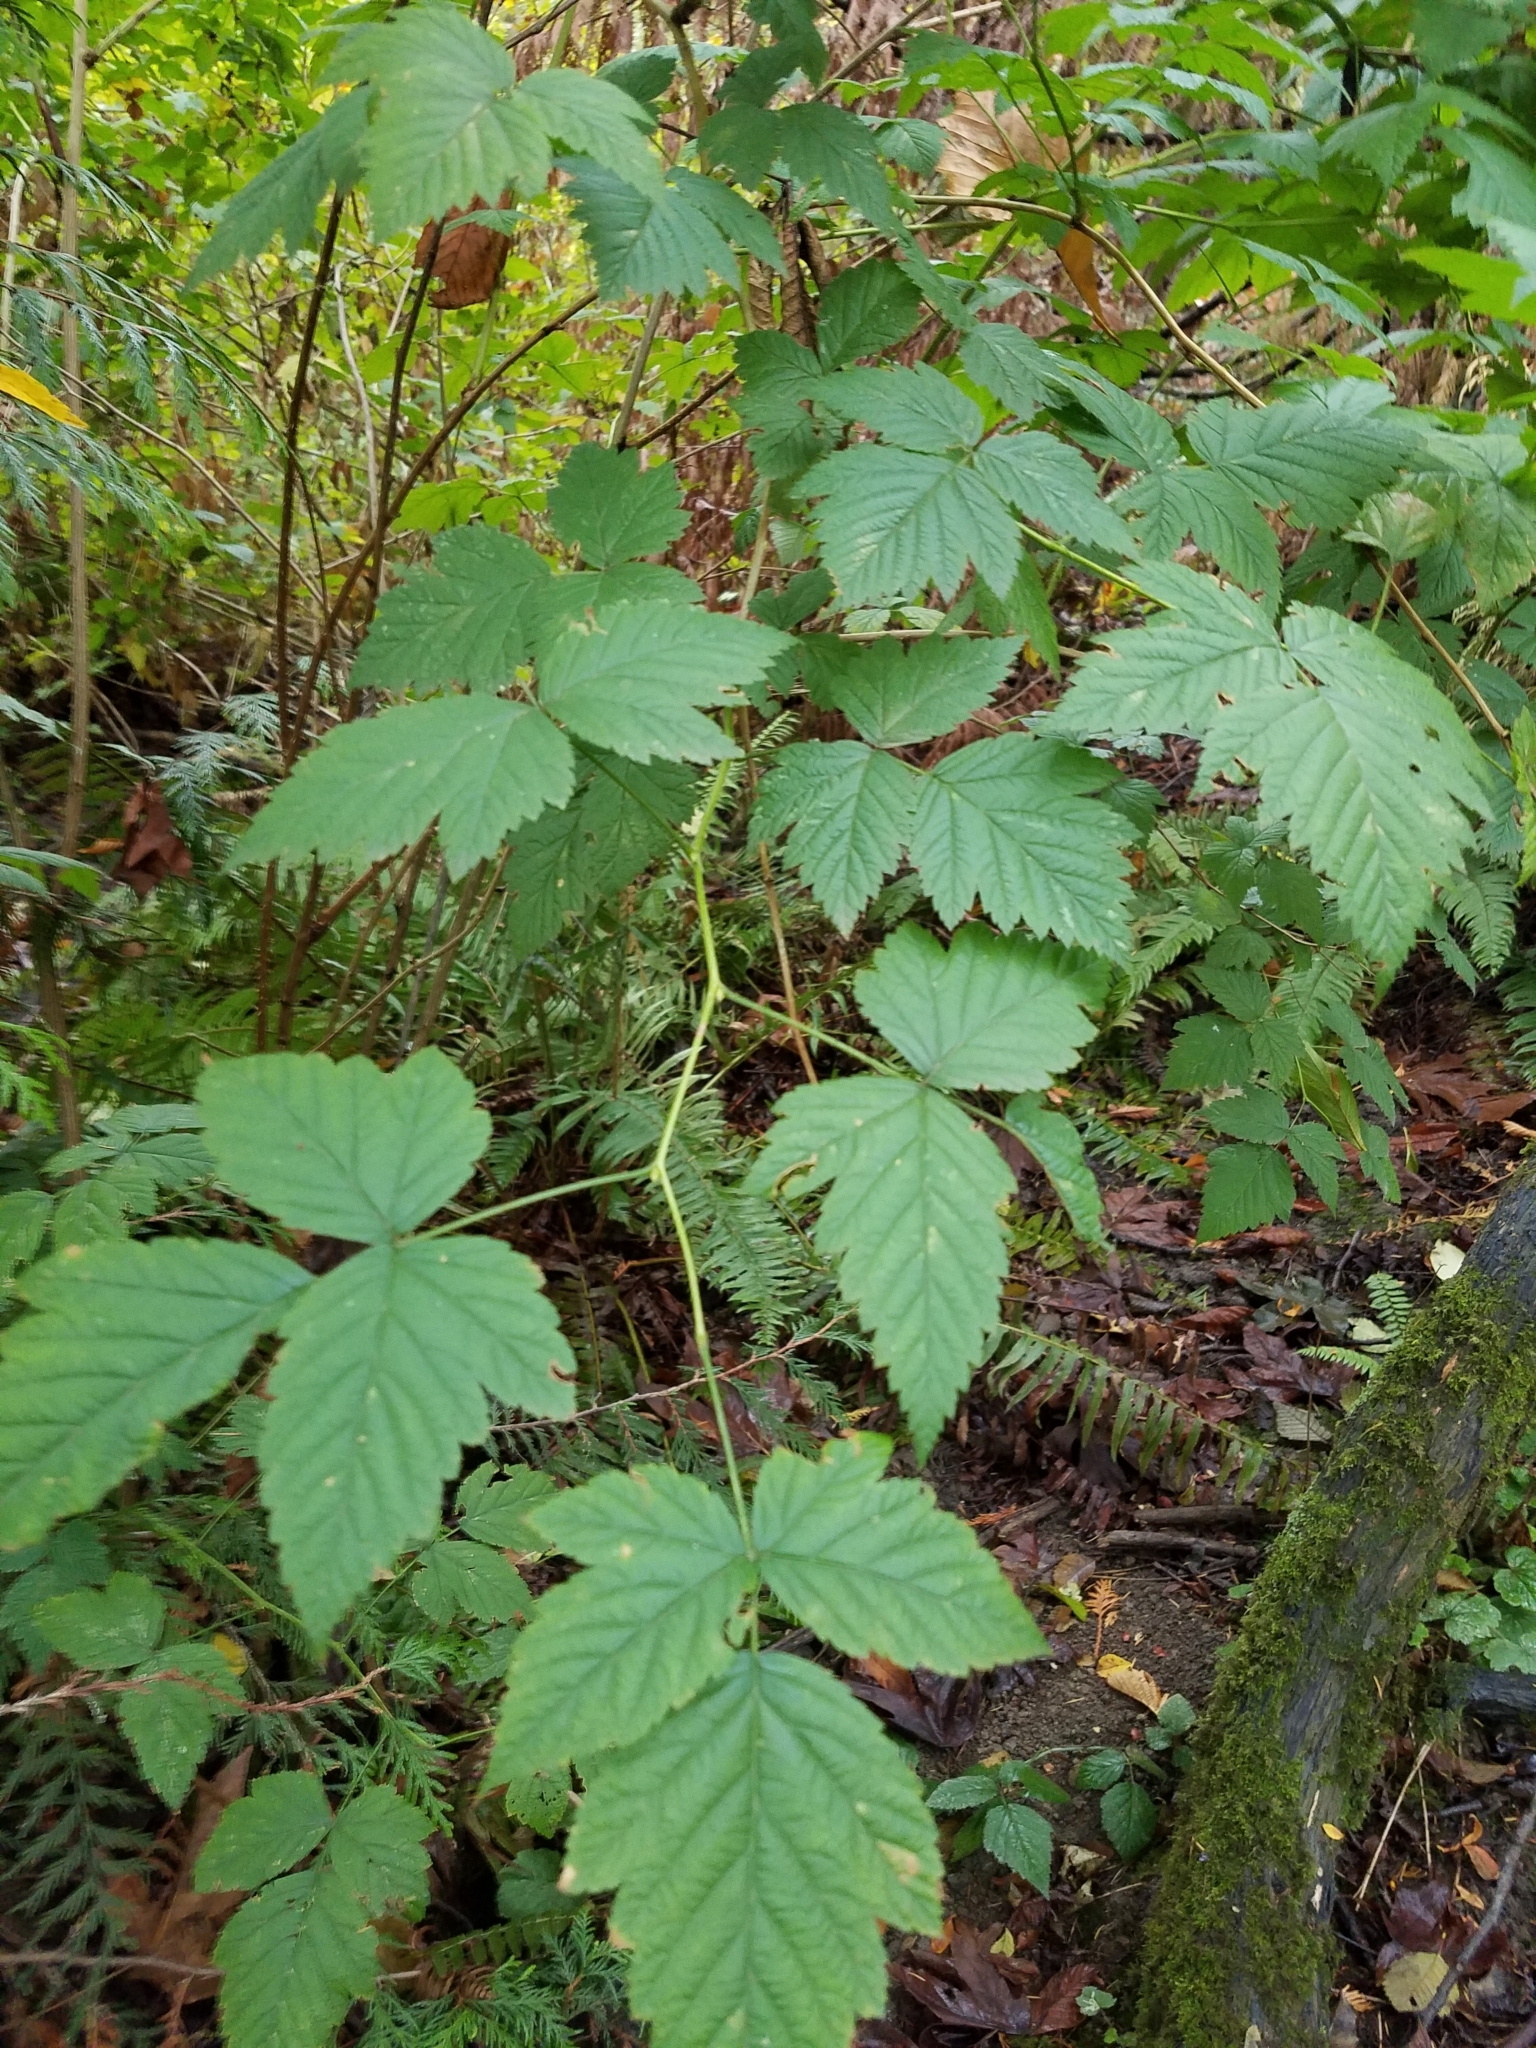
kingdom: Plantae
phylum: Tracheophyta
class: Magnoliopsida
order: Rosales
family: Rosaceae
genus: Rubus
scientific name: Rubus spectabilis
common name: Salmonberry
